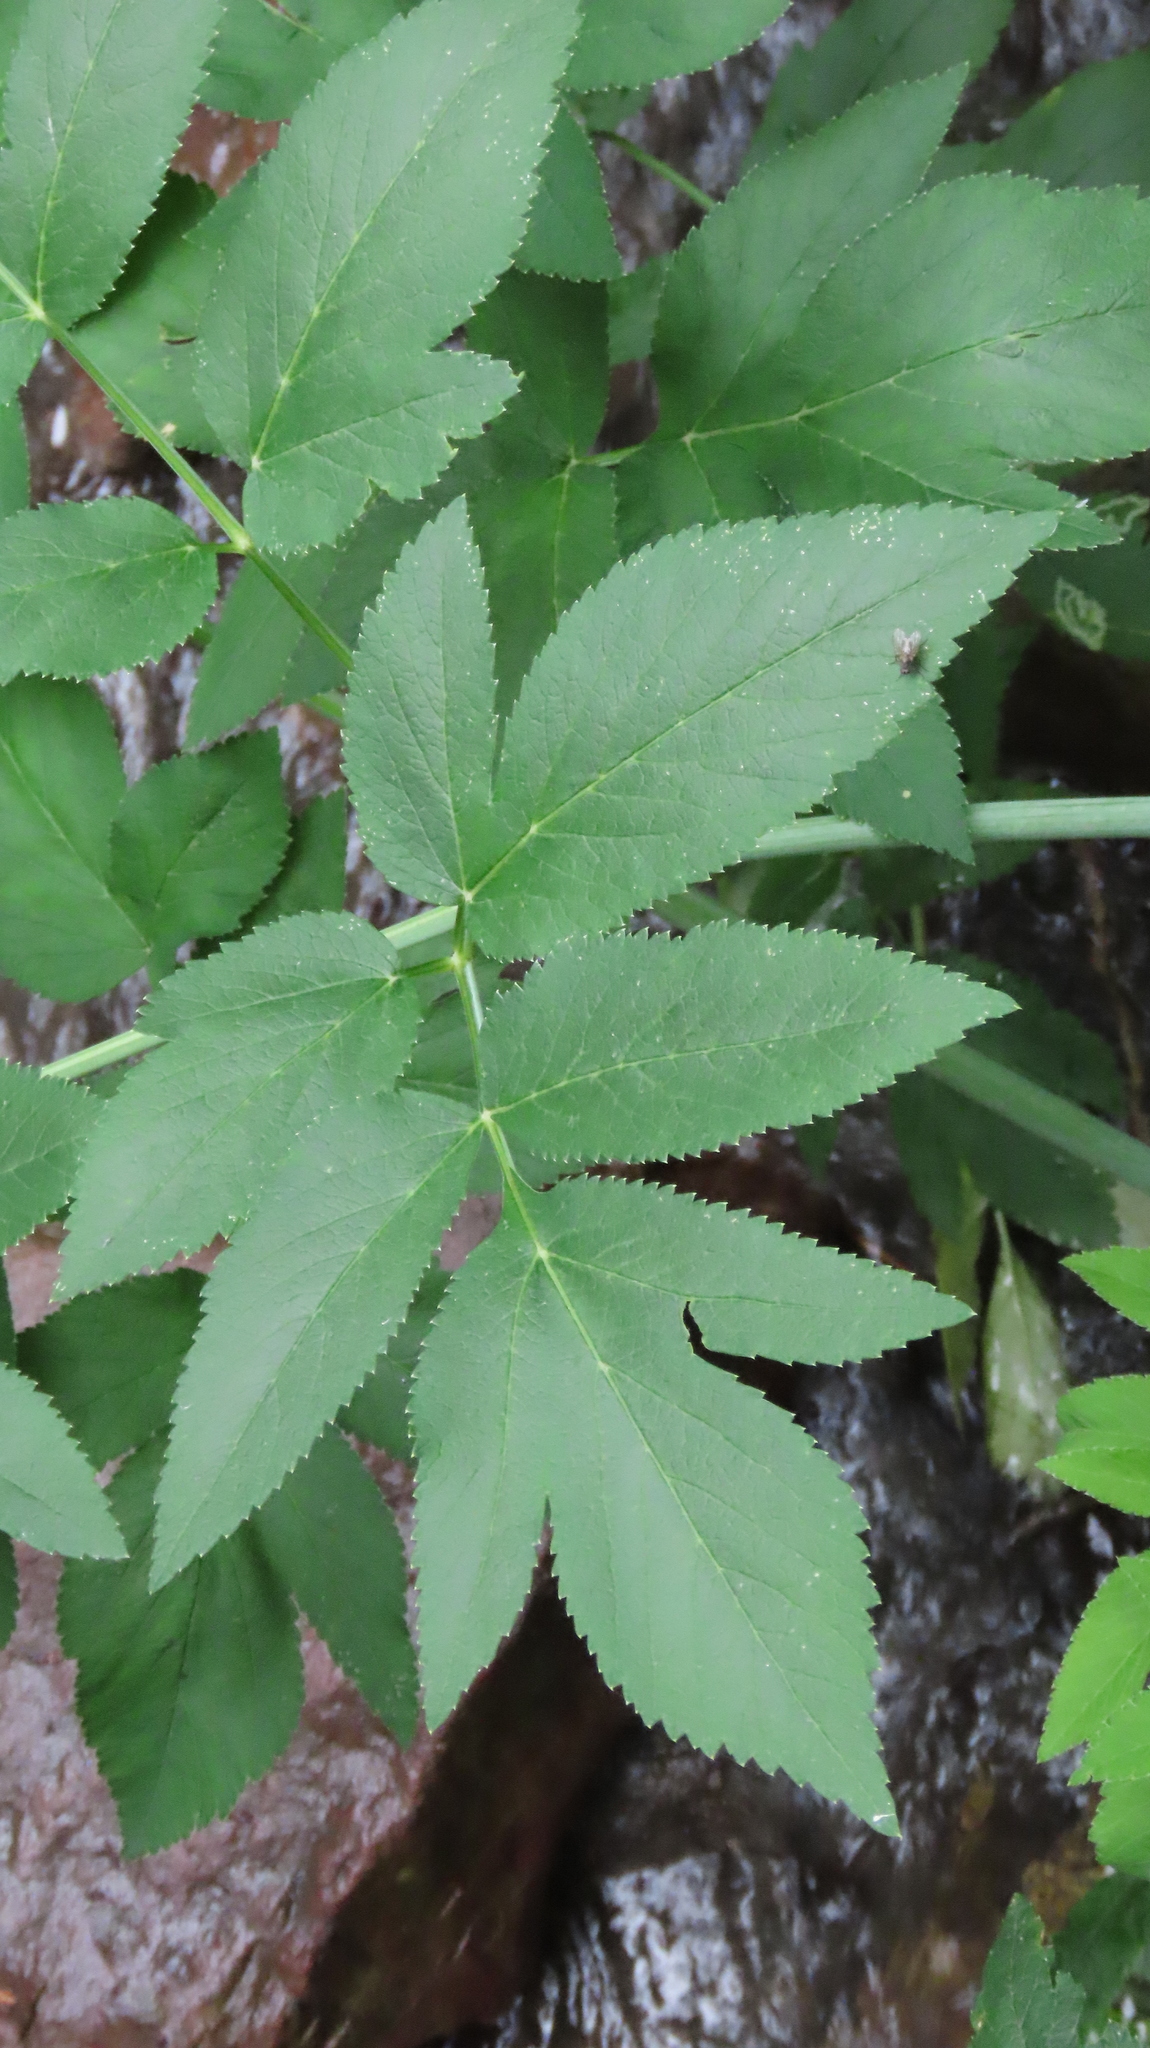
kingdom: Plantae
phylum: Tracheophyta
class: Magnoliopsida
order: Apiales
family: Apiaceae
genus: Angelica
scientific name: Angelica atropurpurea
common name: Great angelica
